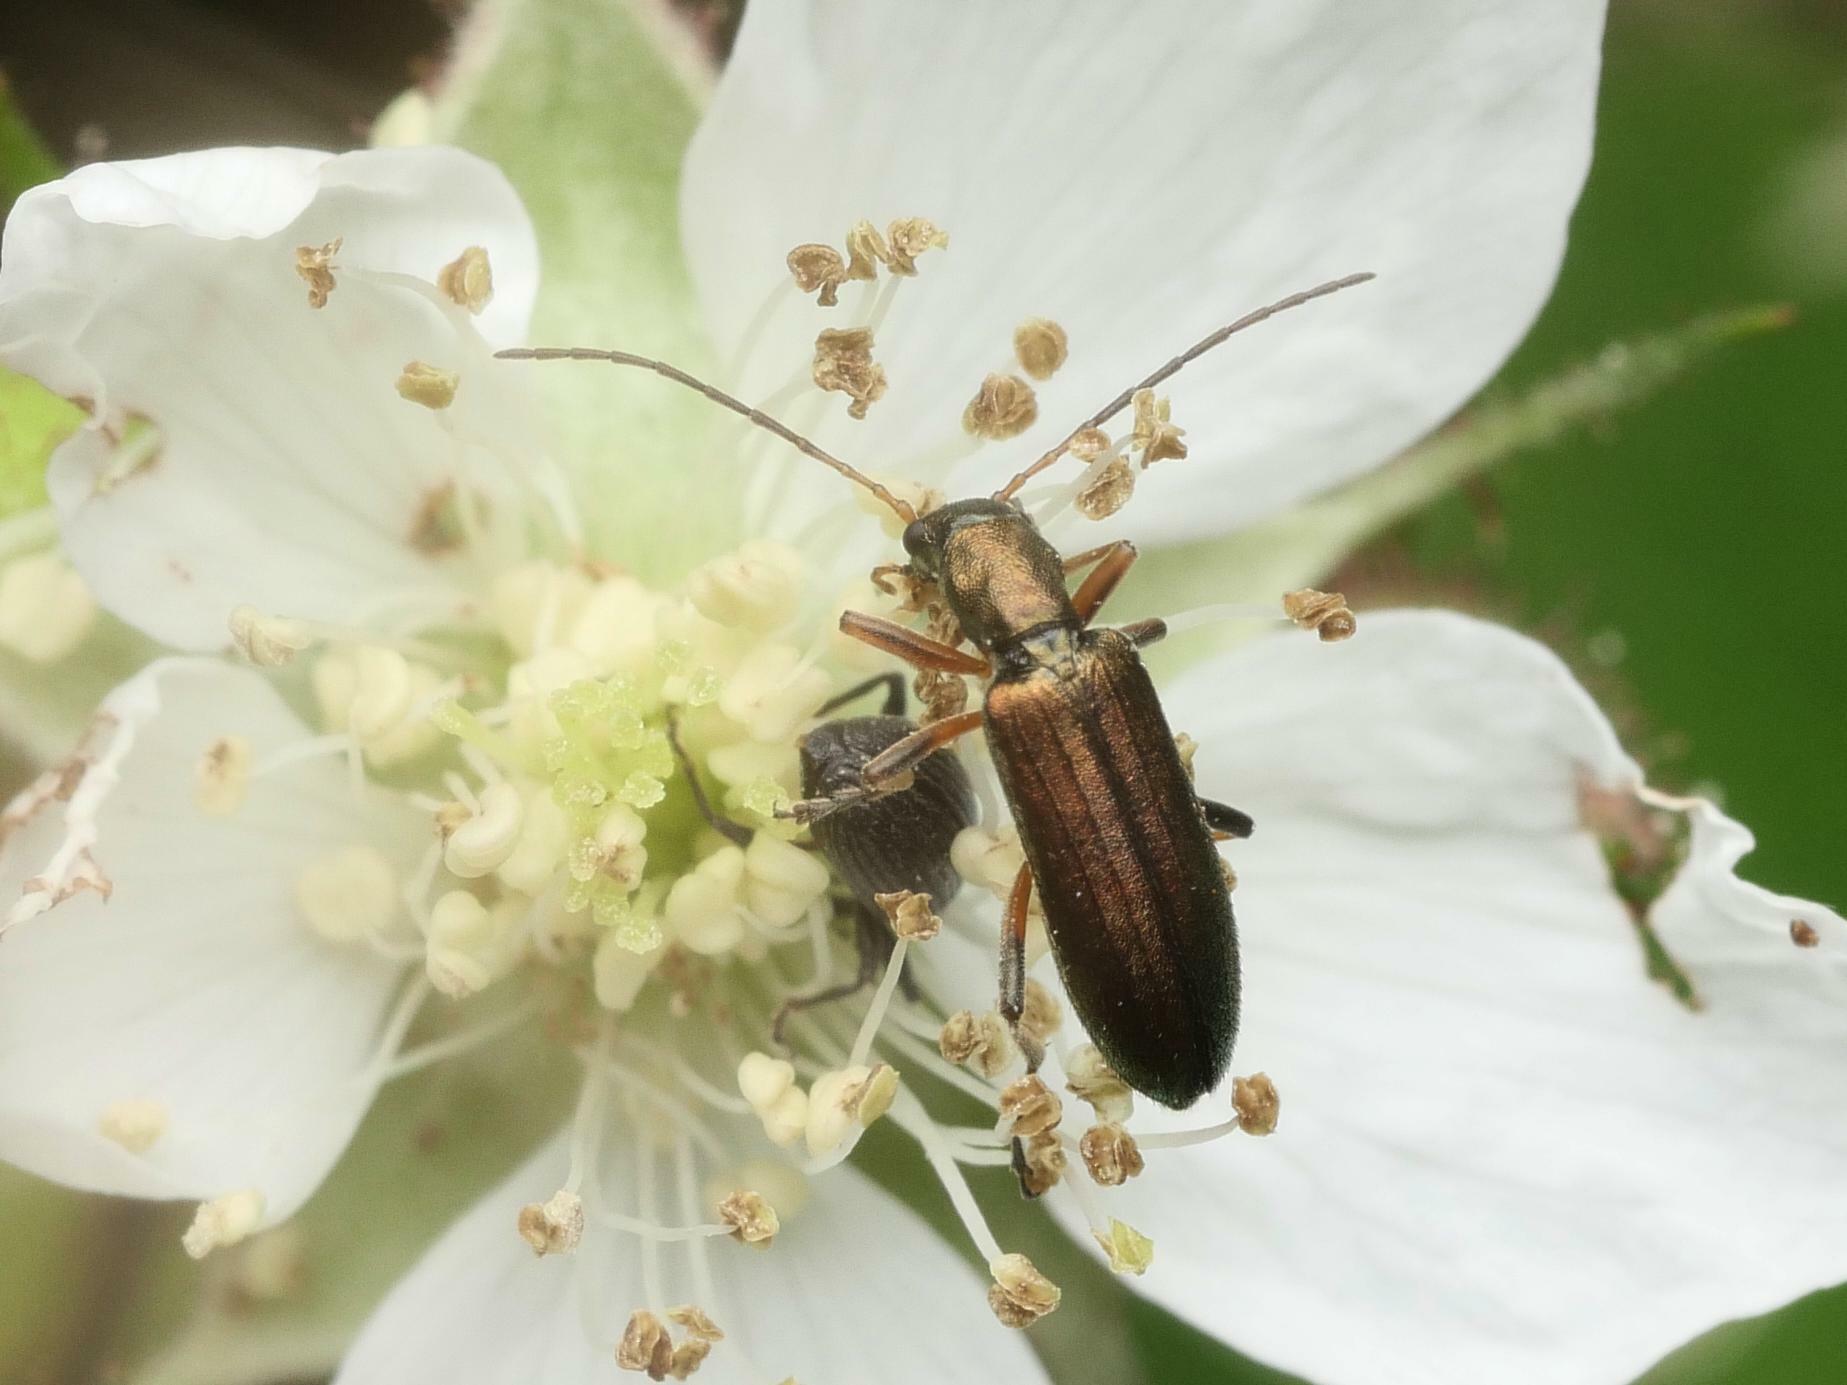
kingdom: Animalia
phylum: Arthropoda
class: Insecta
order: Coleoptera
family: Oedemeridae
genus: Chrysanthia
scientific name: Chrysanthia geniculata
